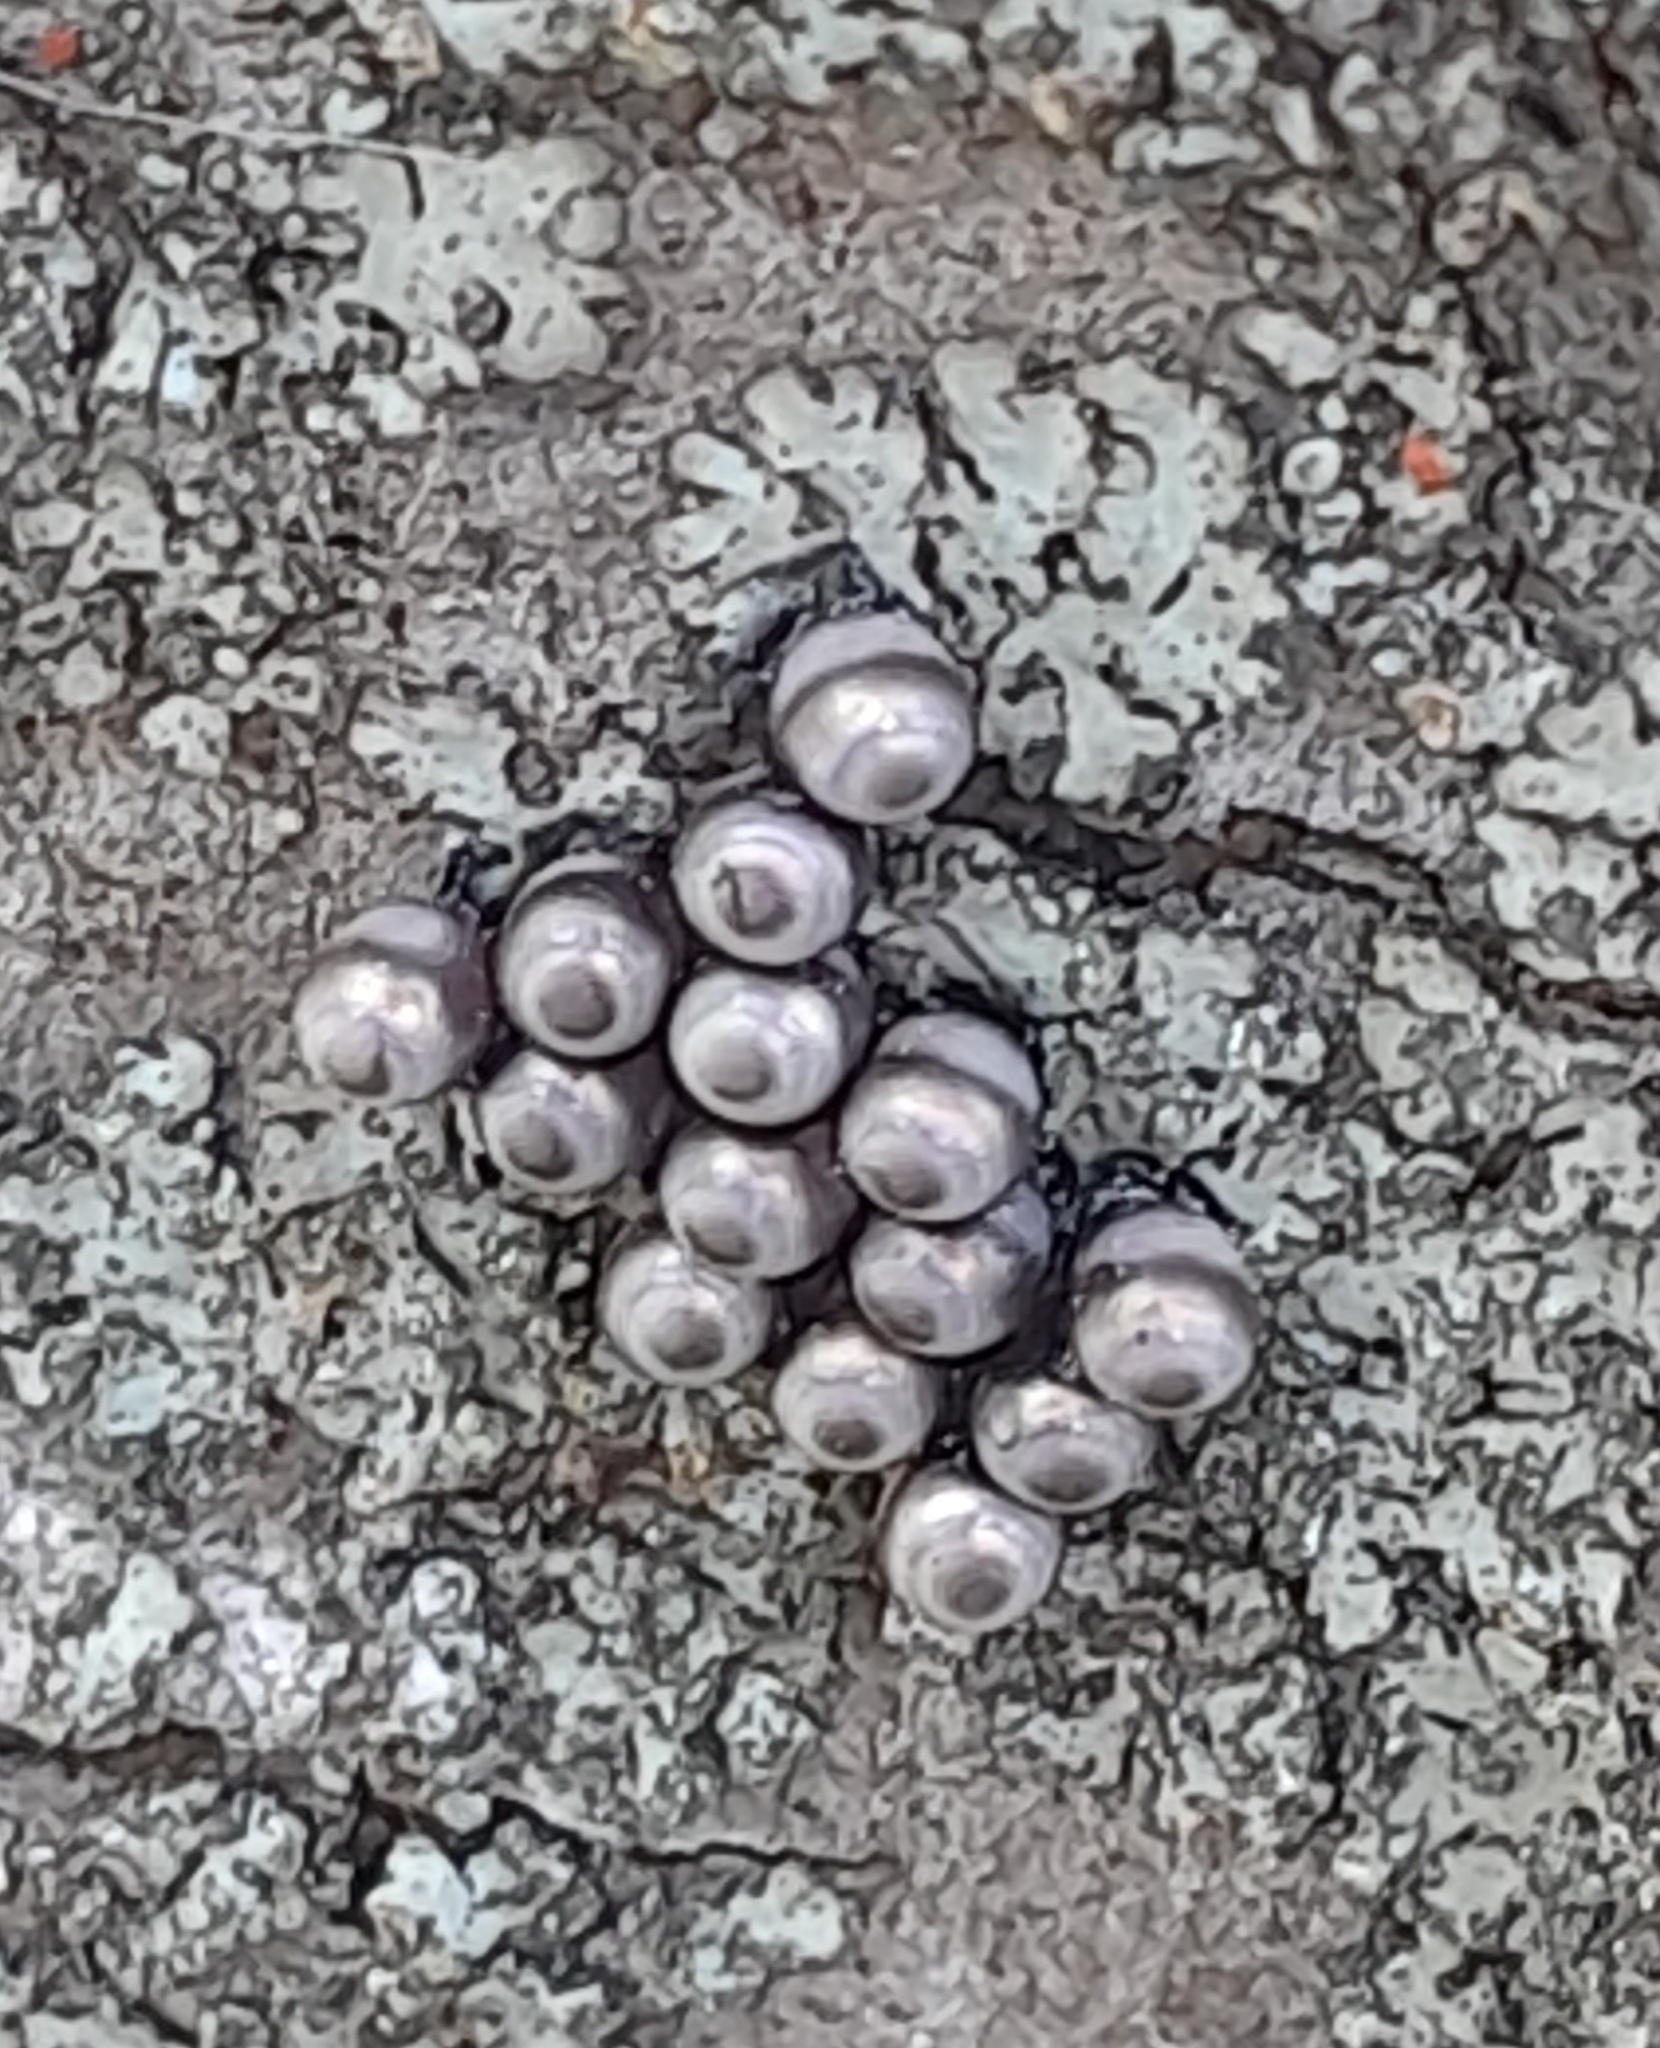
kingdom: Animalia
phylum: Arthropoda
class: Insecta
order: Hemiptera
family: Pentatomidae
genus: Rhaphigaster
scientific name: Rhaphigaster nebulosa
